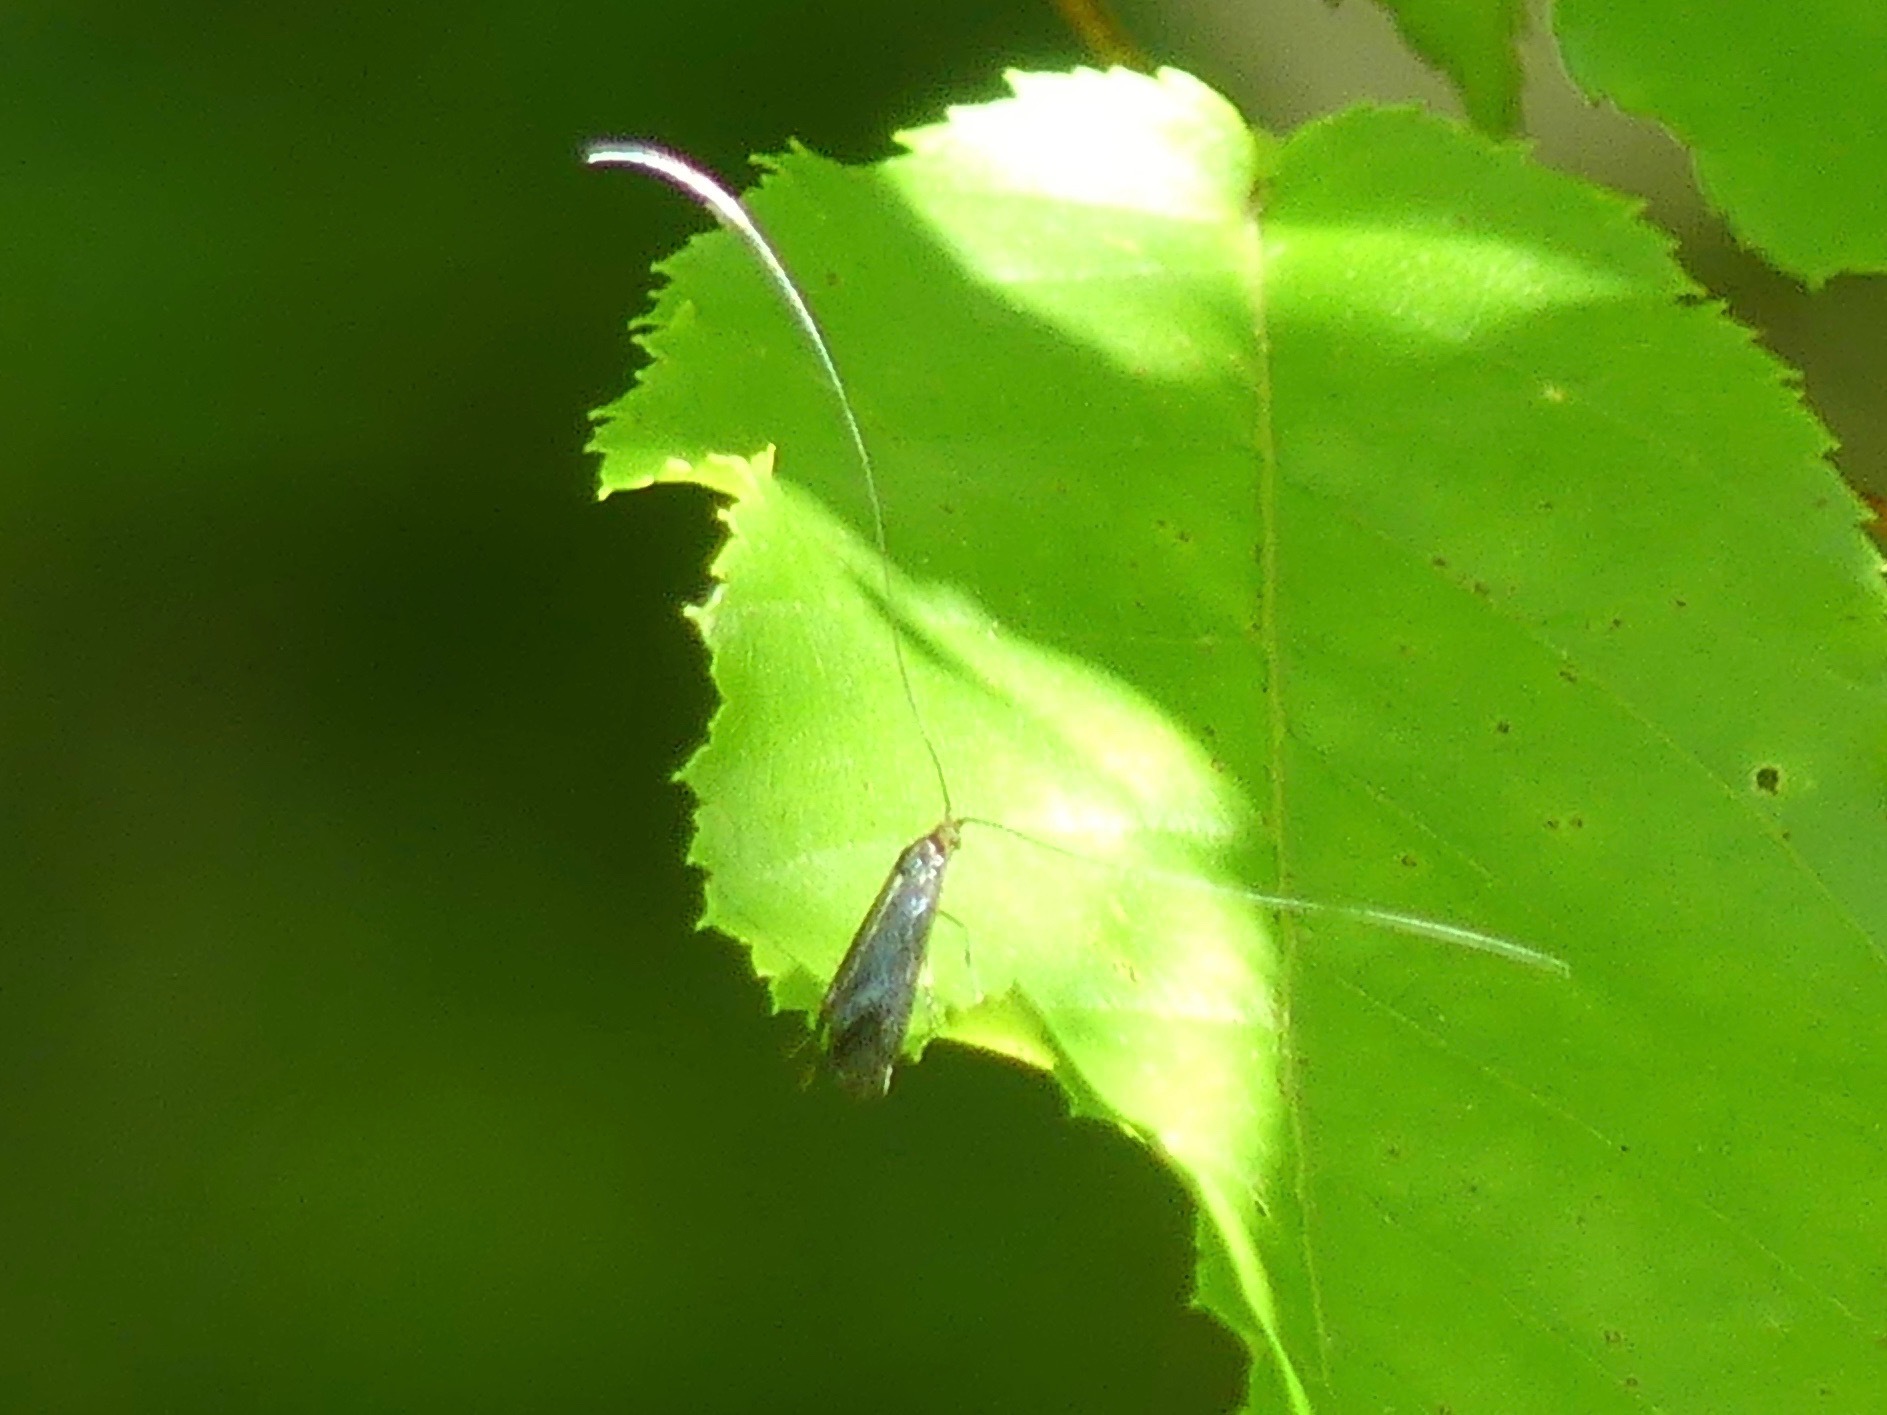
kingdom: Animalia
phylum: Arthropoda
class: Insecta
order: Lepidoptera
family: Adelidae
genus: Adela
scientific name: Adela caeruleella
